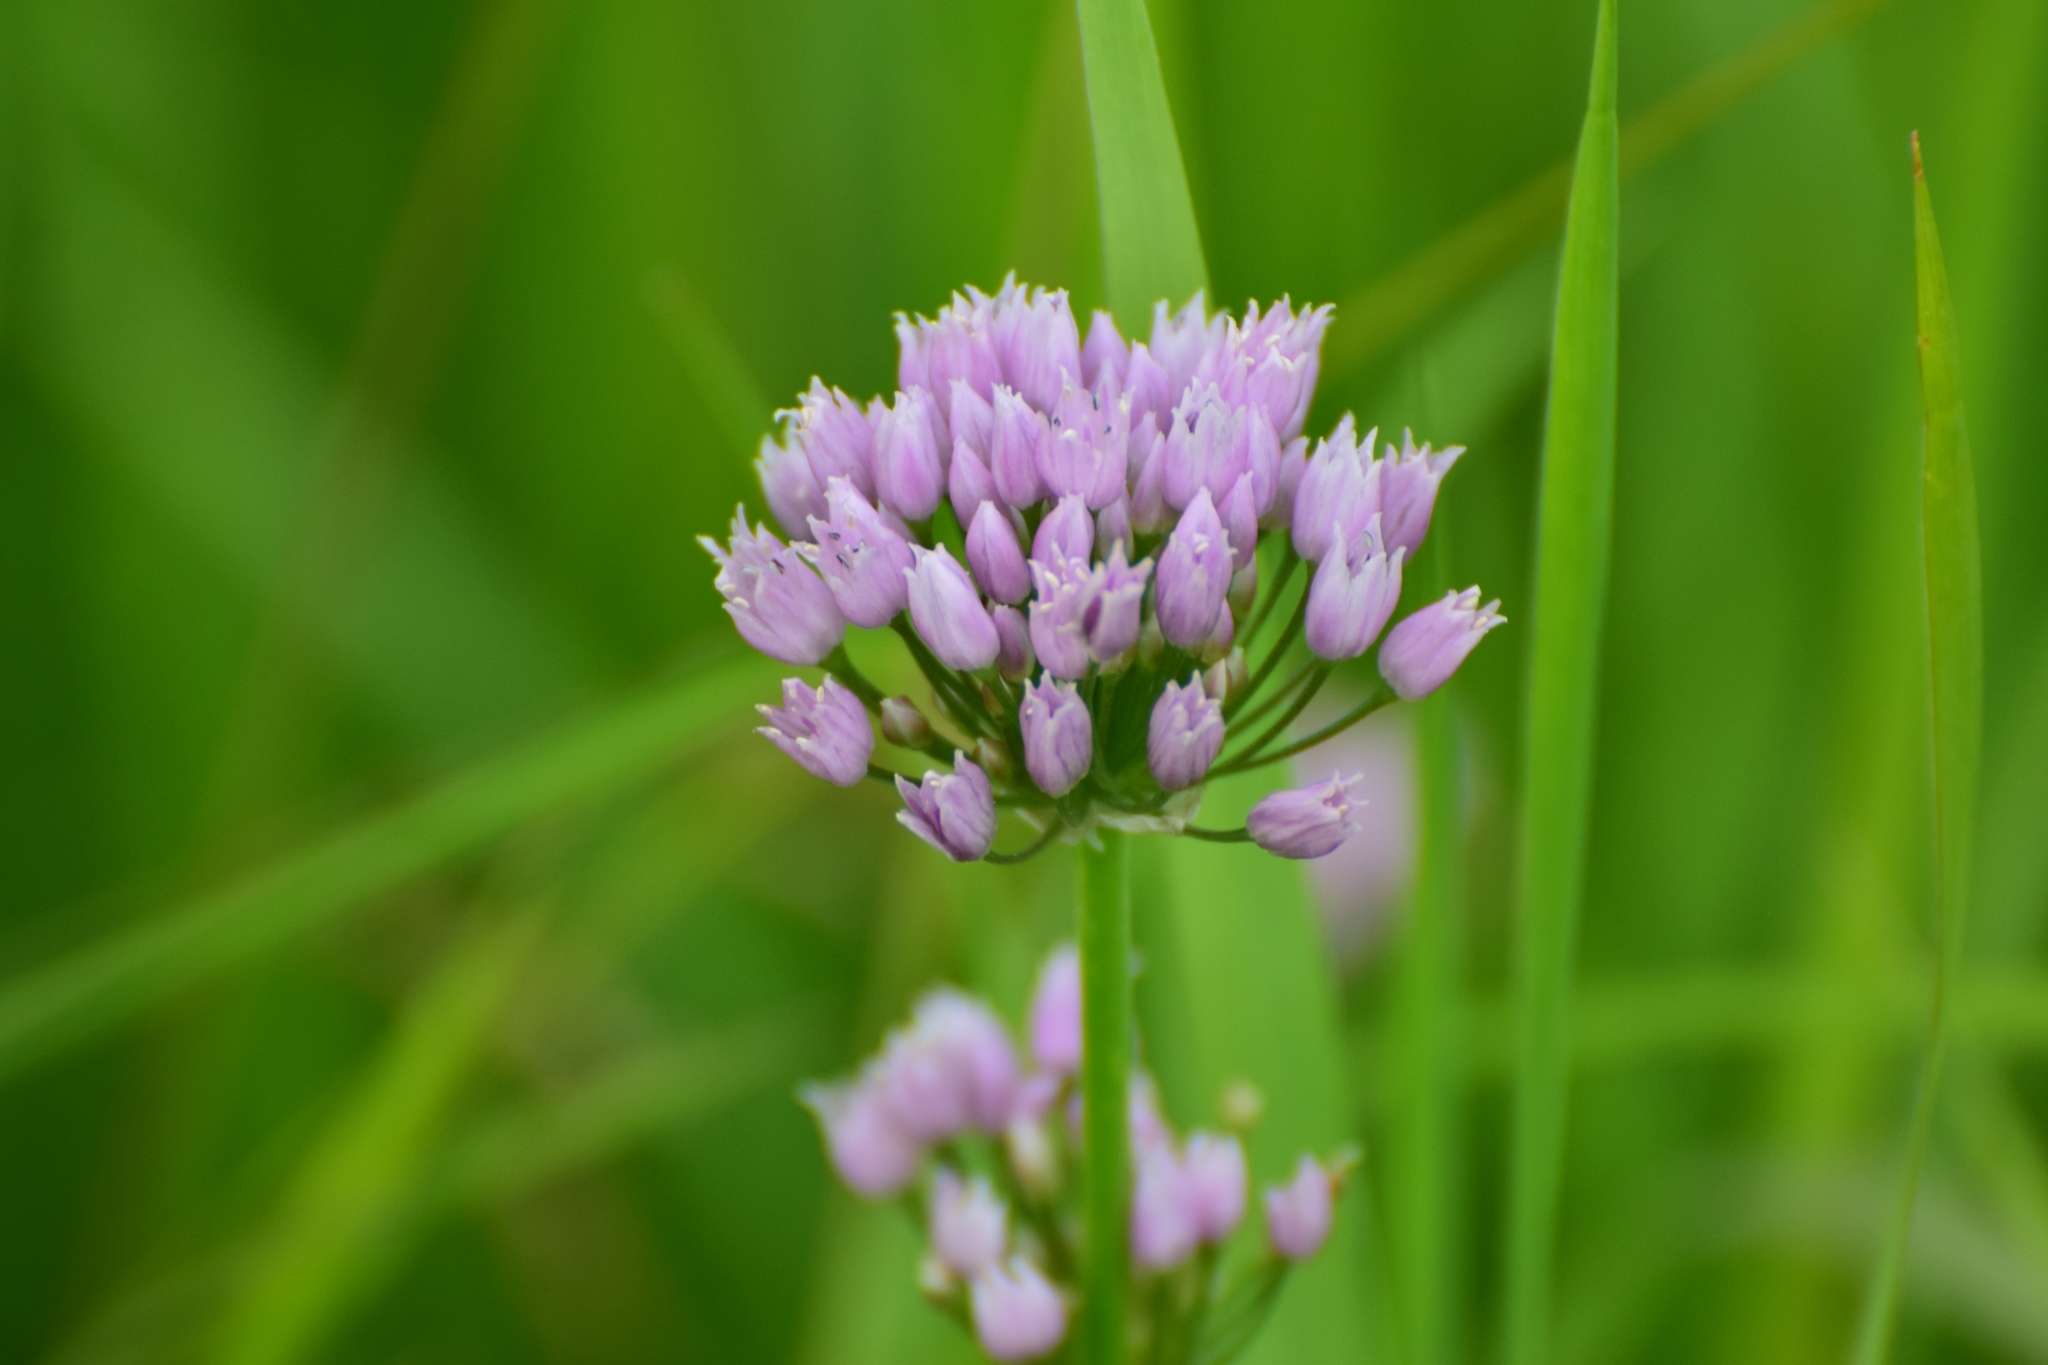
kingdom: Plantae
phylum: Tracheophyta
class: Liliopsida
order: Asparagales
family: Amaryllidaceae
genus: Allium
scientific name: Allium angulosum
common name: Mouse garlic
